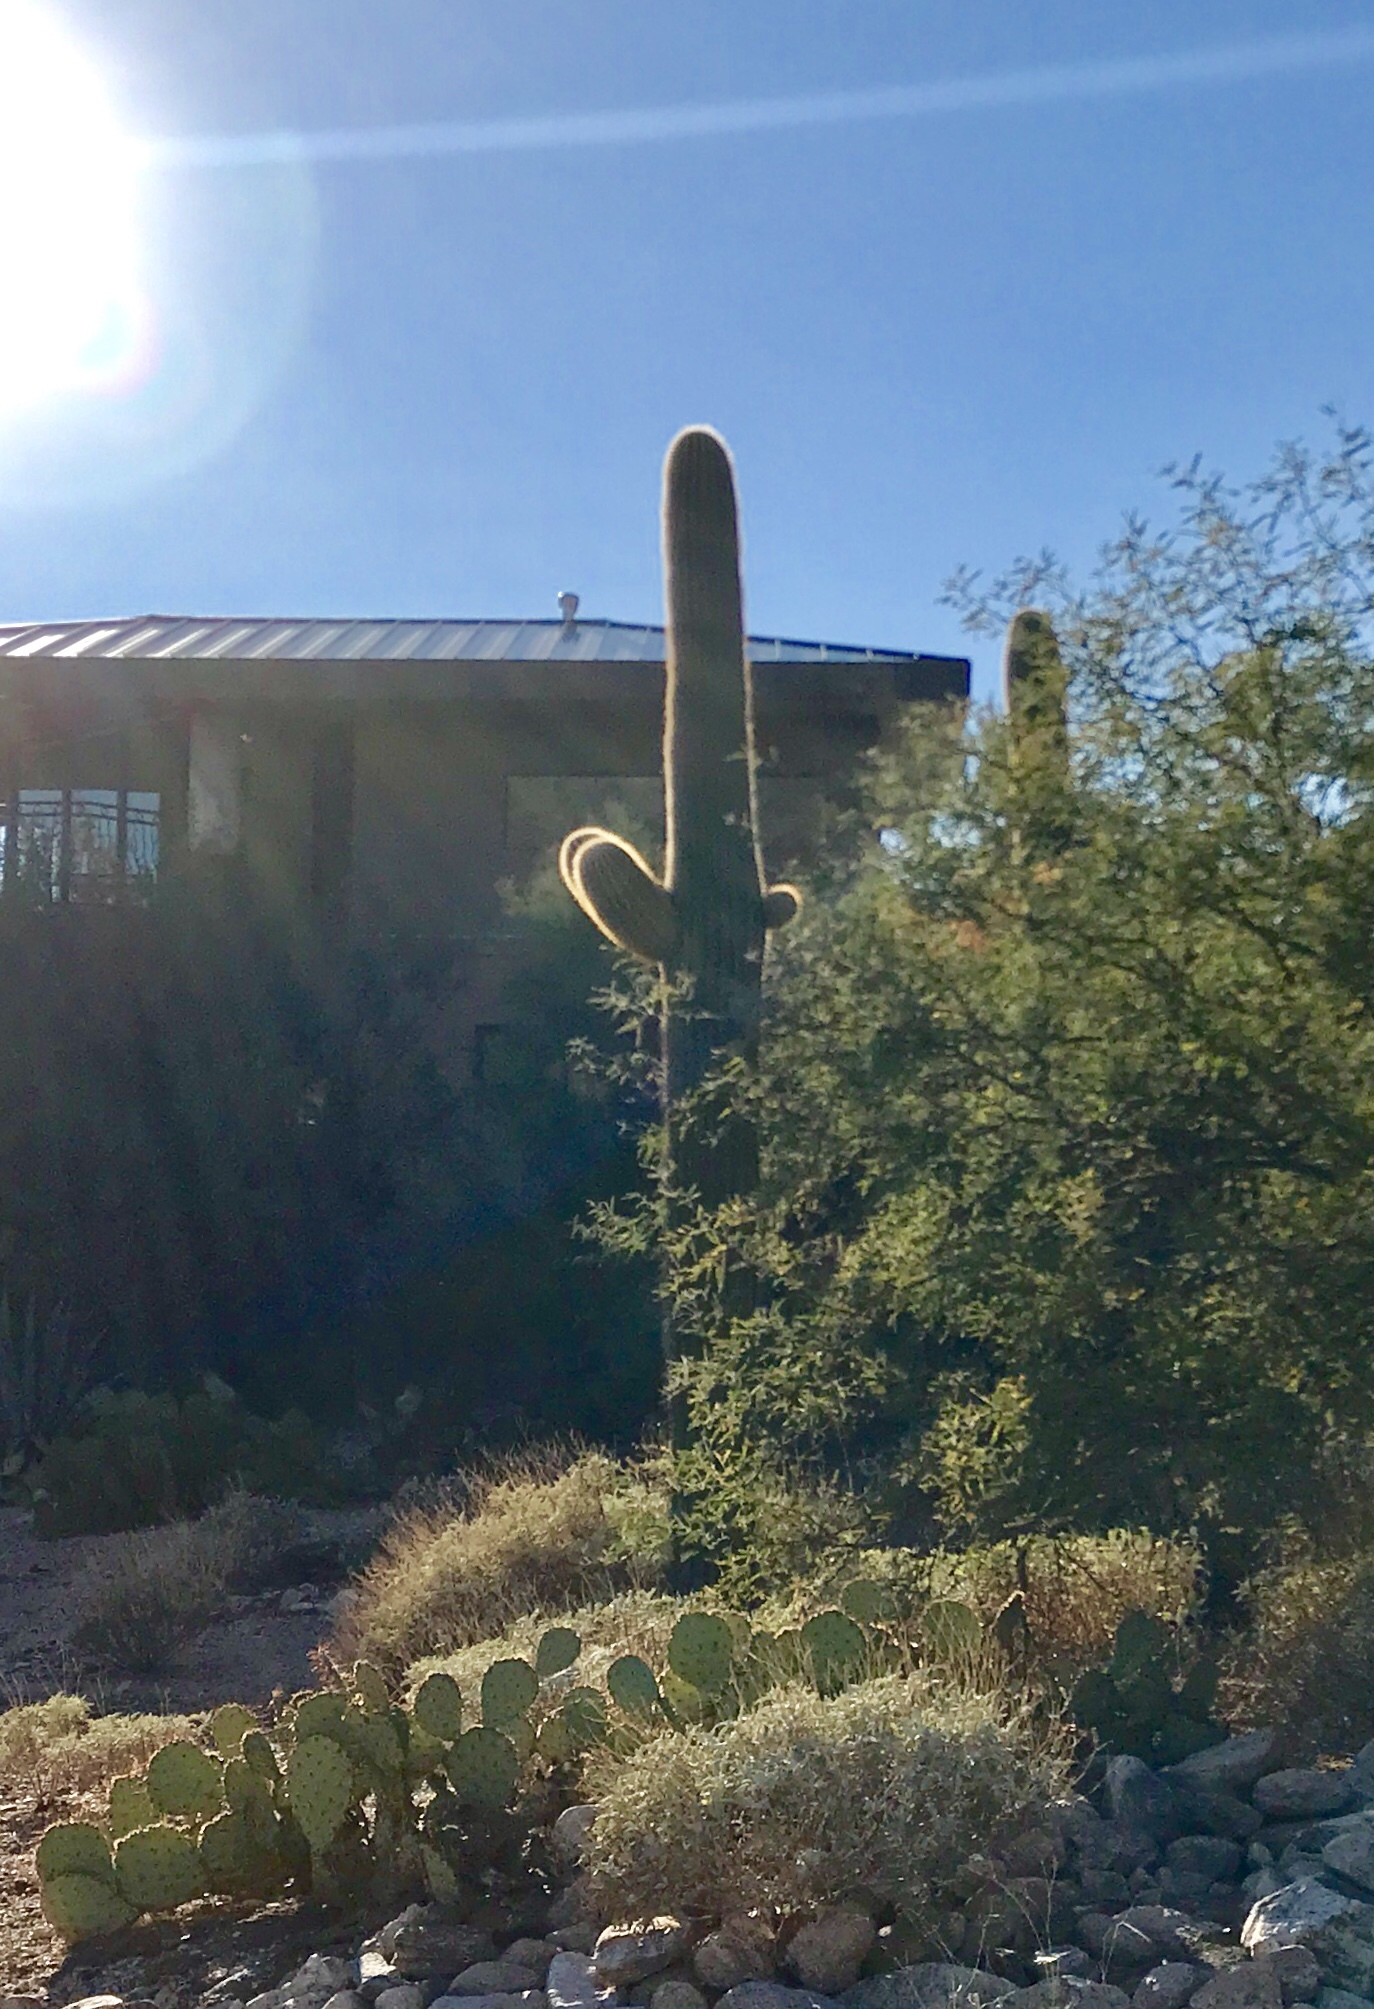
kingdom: Plantae
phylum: Tracheophyta
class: Magnoliopsida
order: Caryophyllales
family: Cactaceae
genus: Carnegiea
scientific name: Carnegiea gigantea
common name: Saguaro
